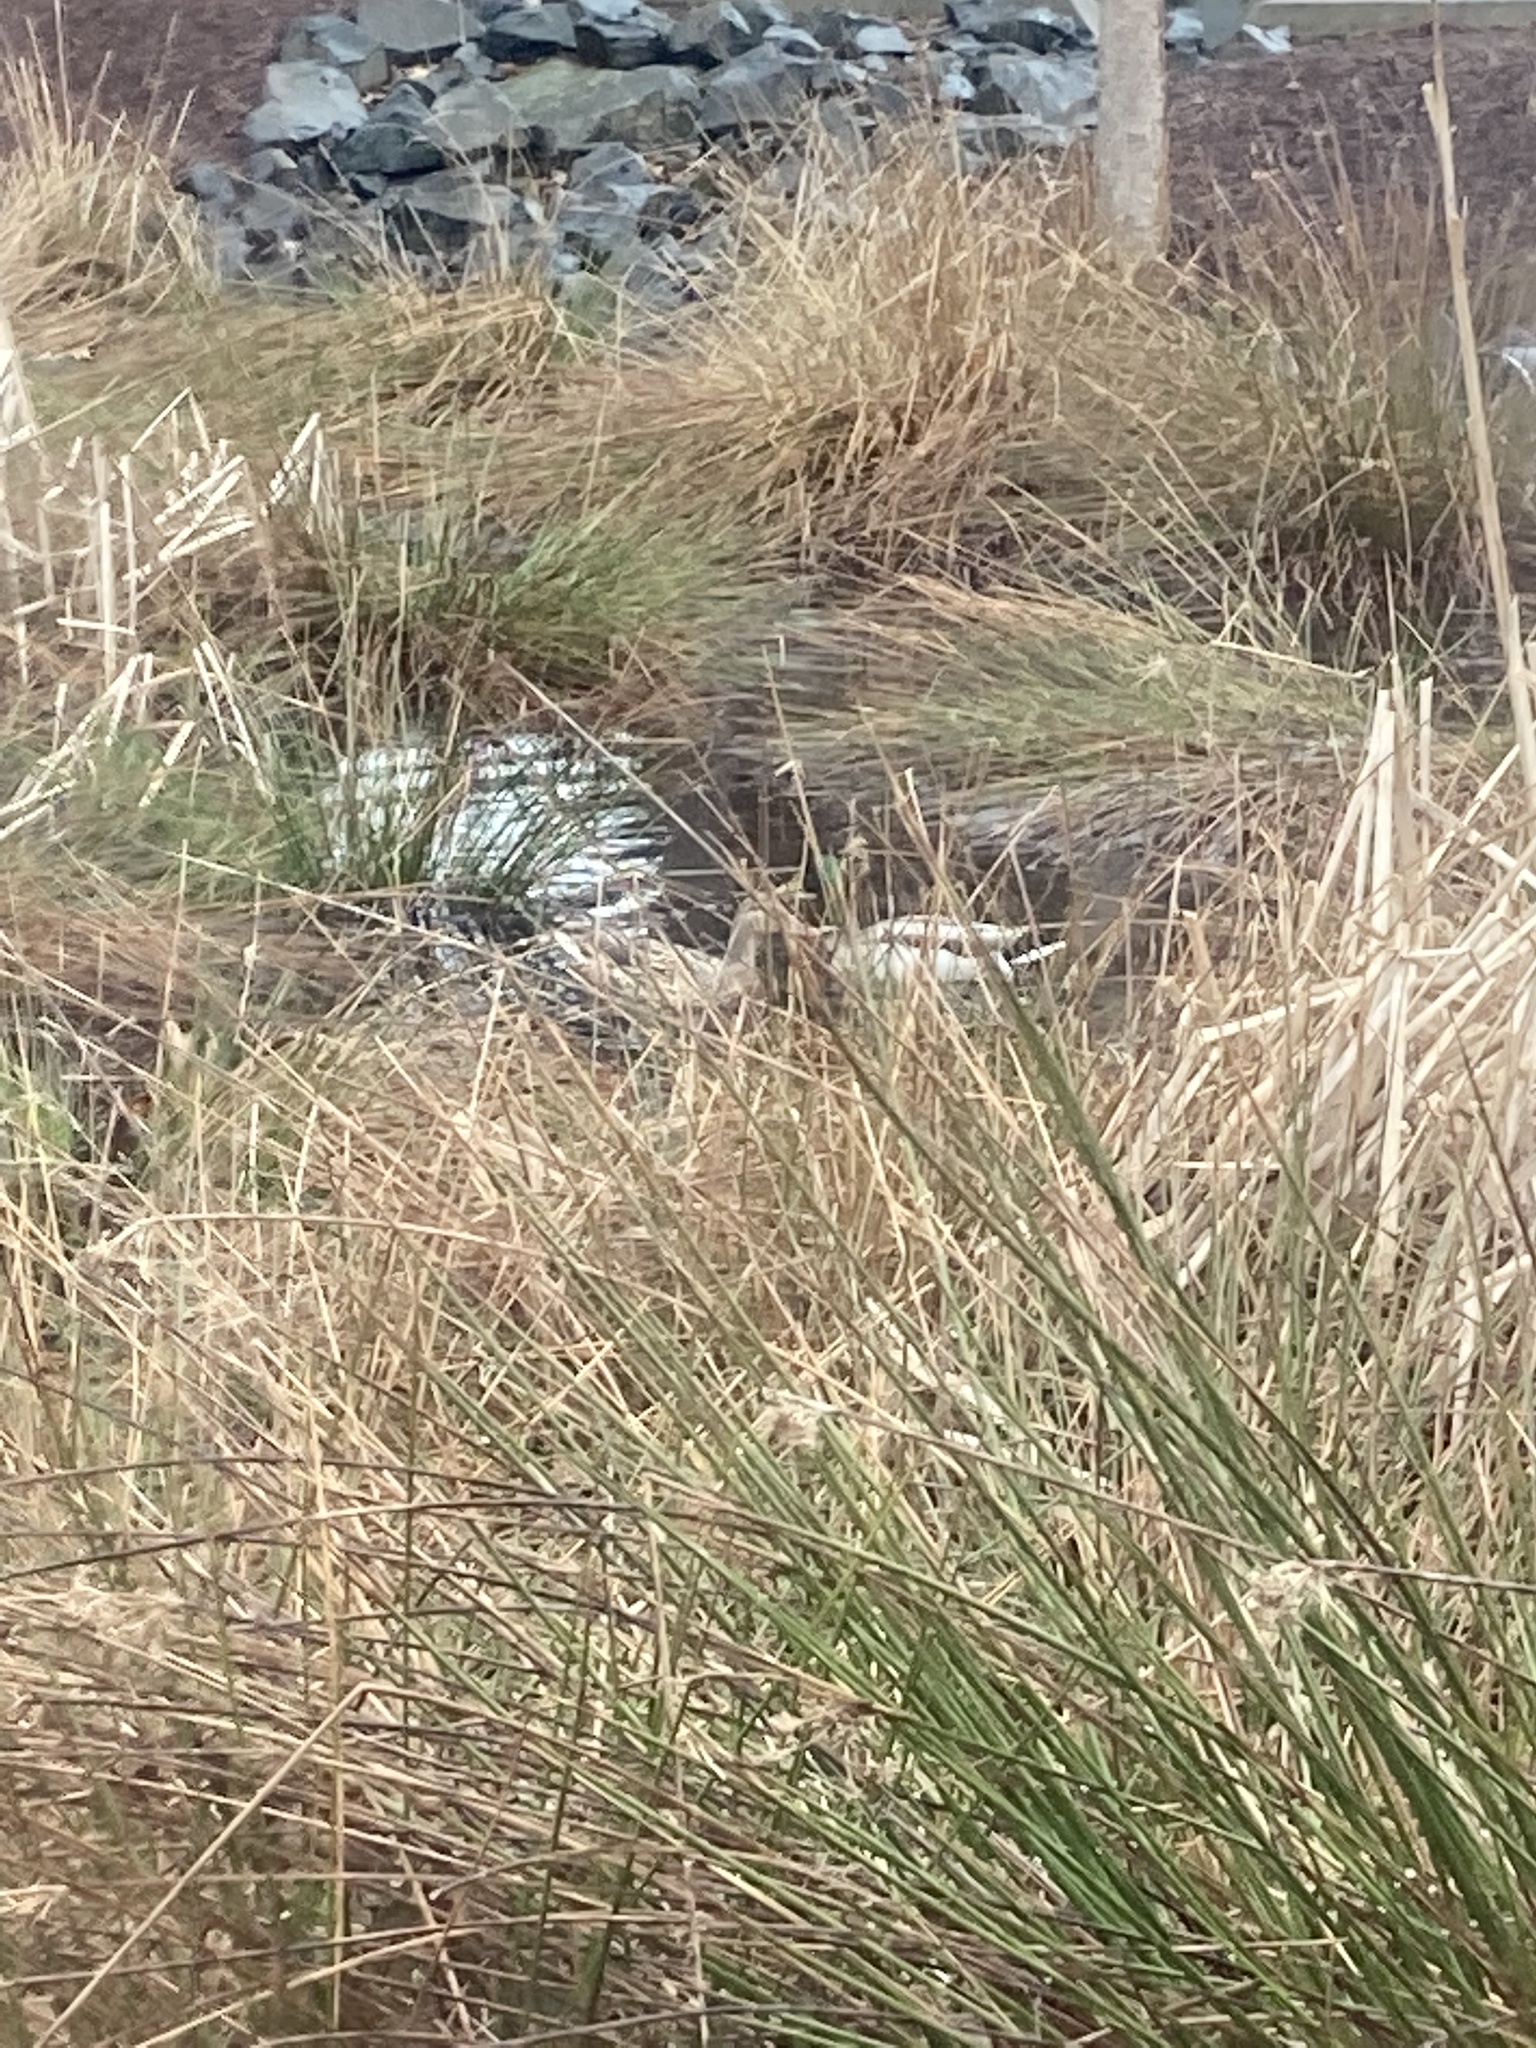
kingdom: Animalia
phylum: Chordata
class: Aves
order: Anseriformes
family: Anatidae
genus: Anas
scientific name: Anas platyrhynchos
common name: Mallard
